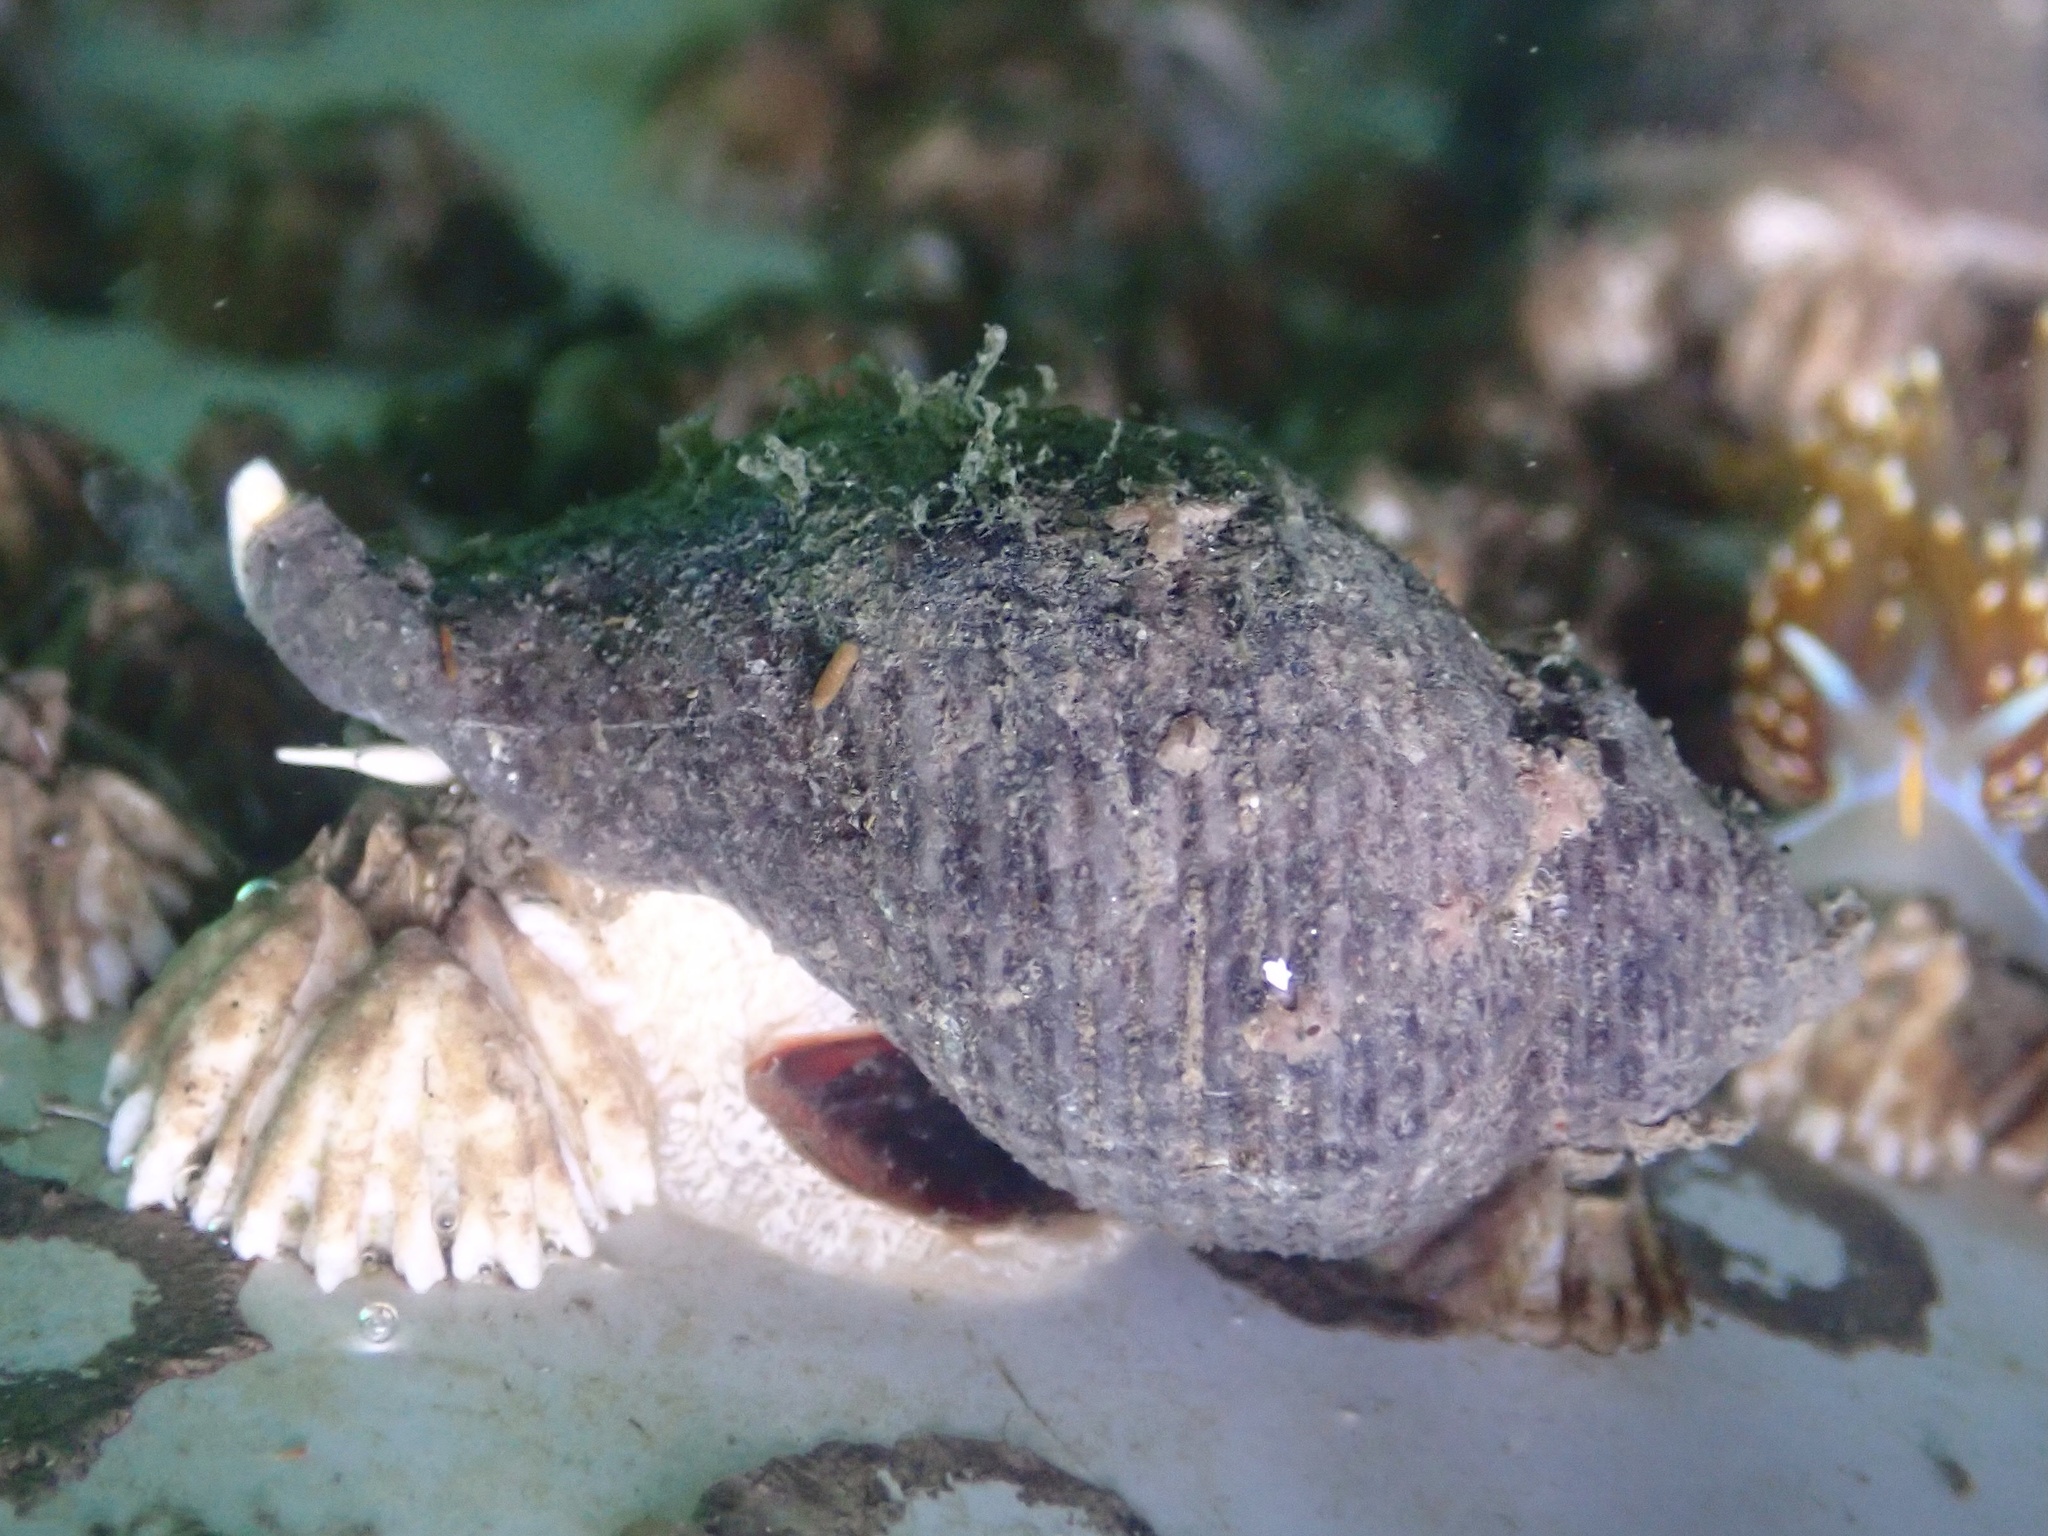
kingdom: Animalia
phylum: Mollusca
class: Gastropoda
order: Neogastropoda
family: Muricidae
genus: Acanthinucella
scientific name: Acanthinucella spirata
